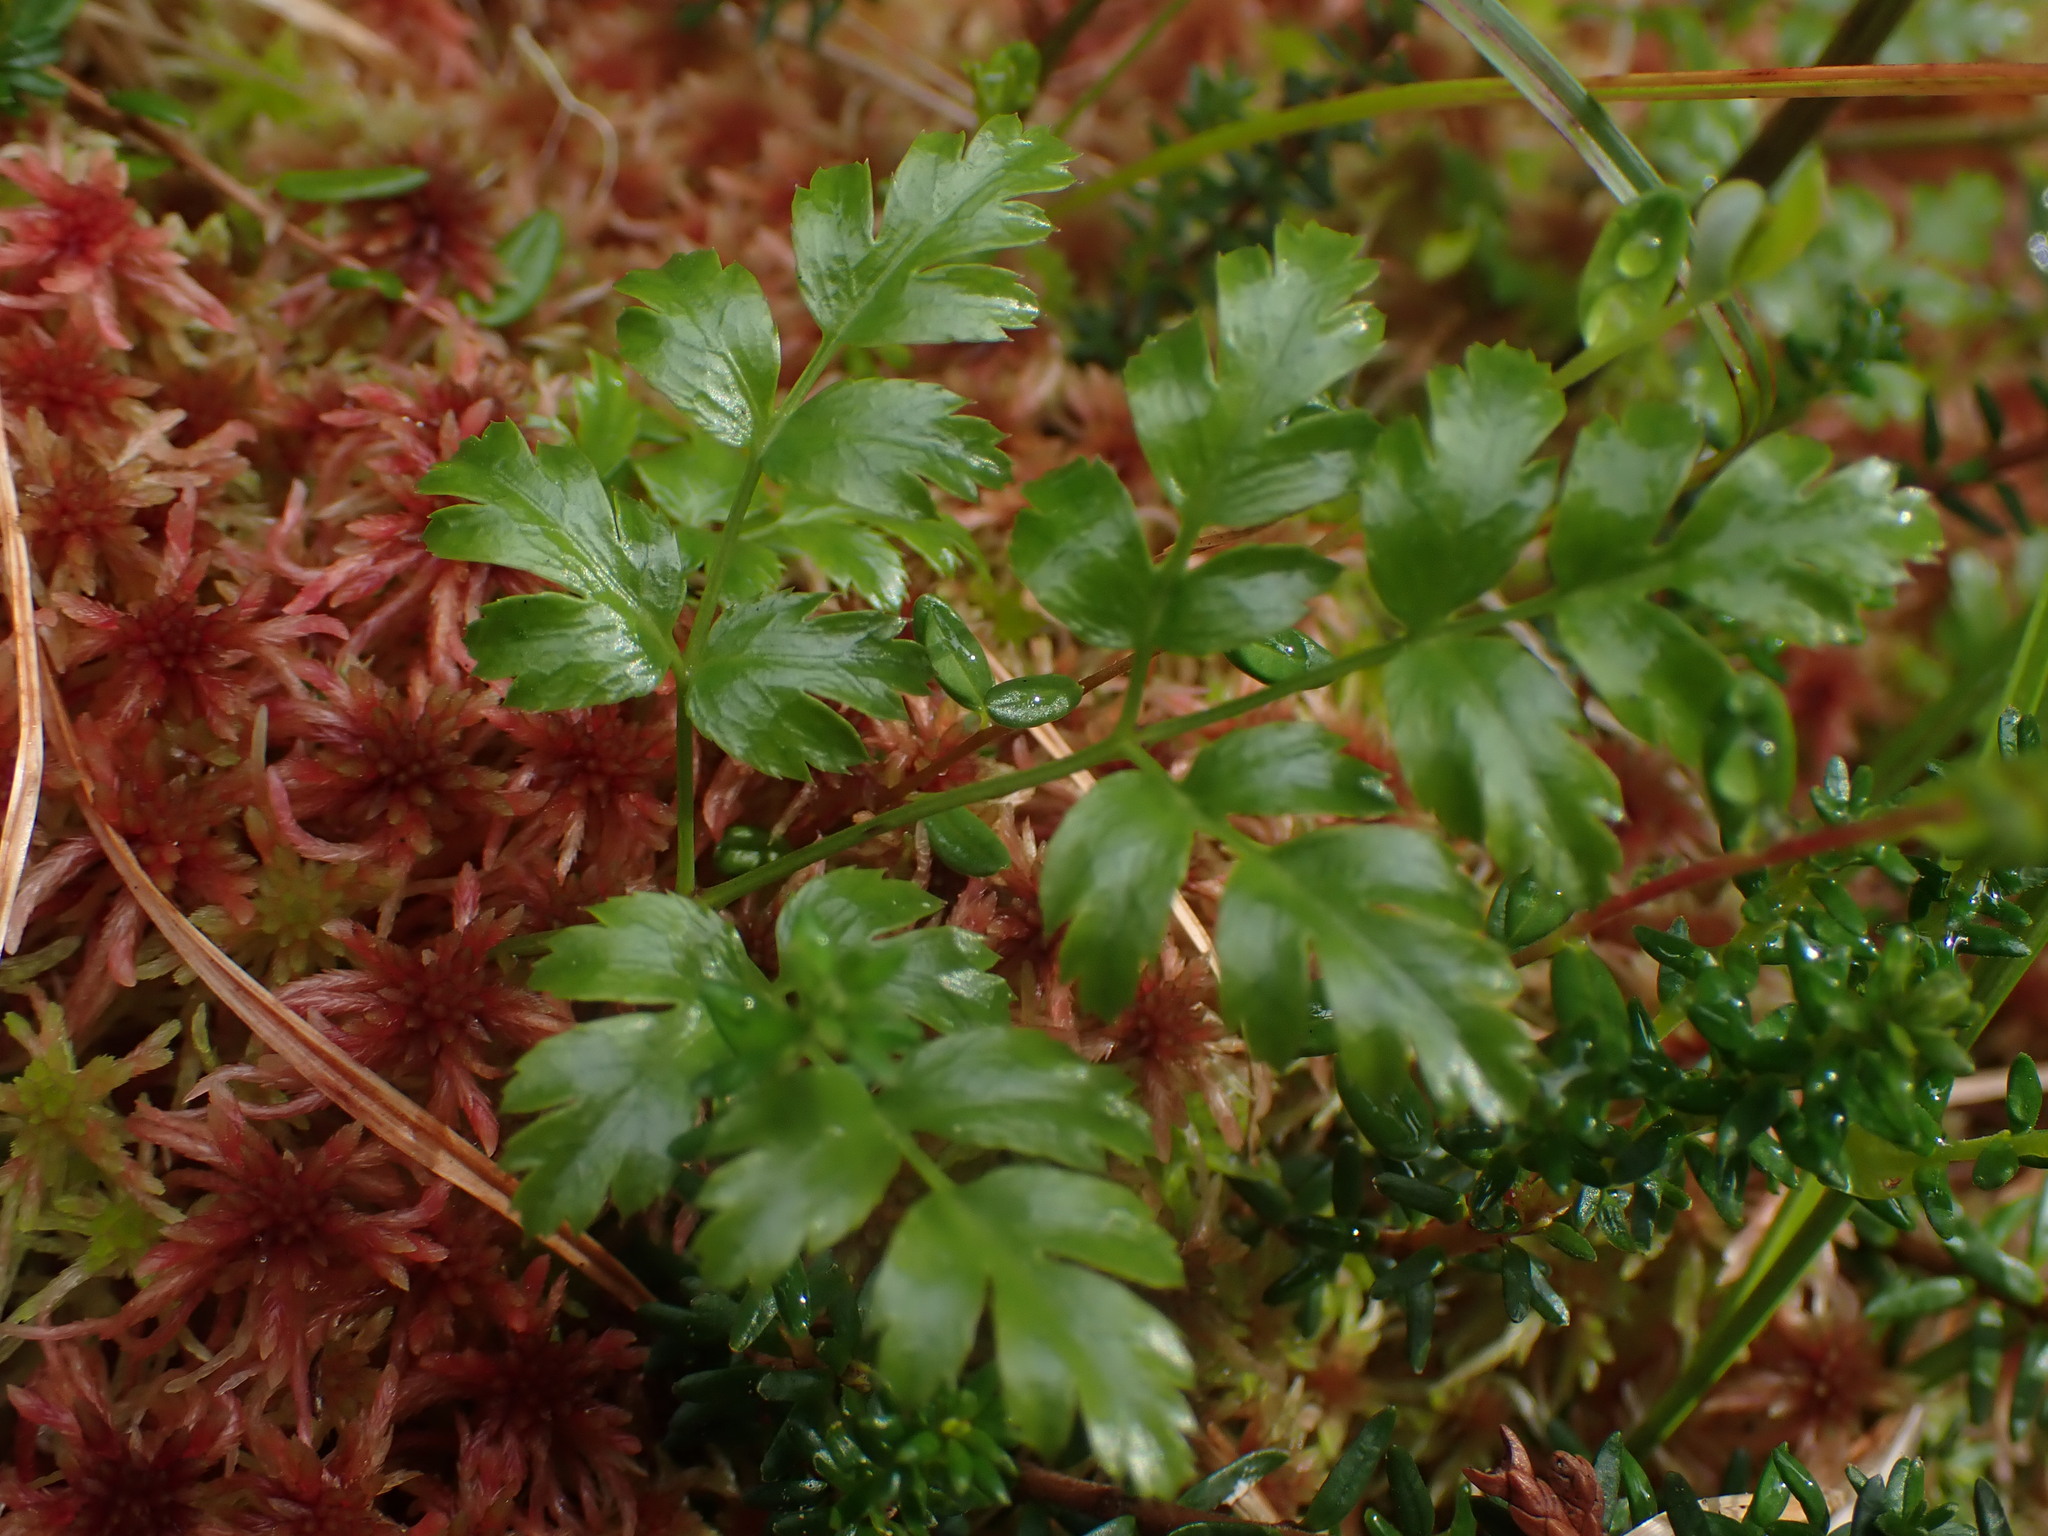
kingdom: Plantae
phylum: Tracheophyta
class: Magnoliopsida
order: Ranunculales
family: Ranunculaceae
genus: Coptis
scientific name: Coptis aspleniifolia
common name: Fern-leaved goldthread
